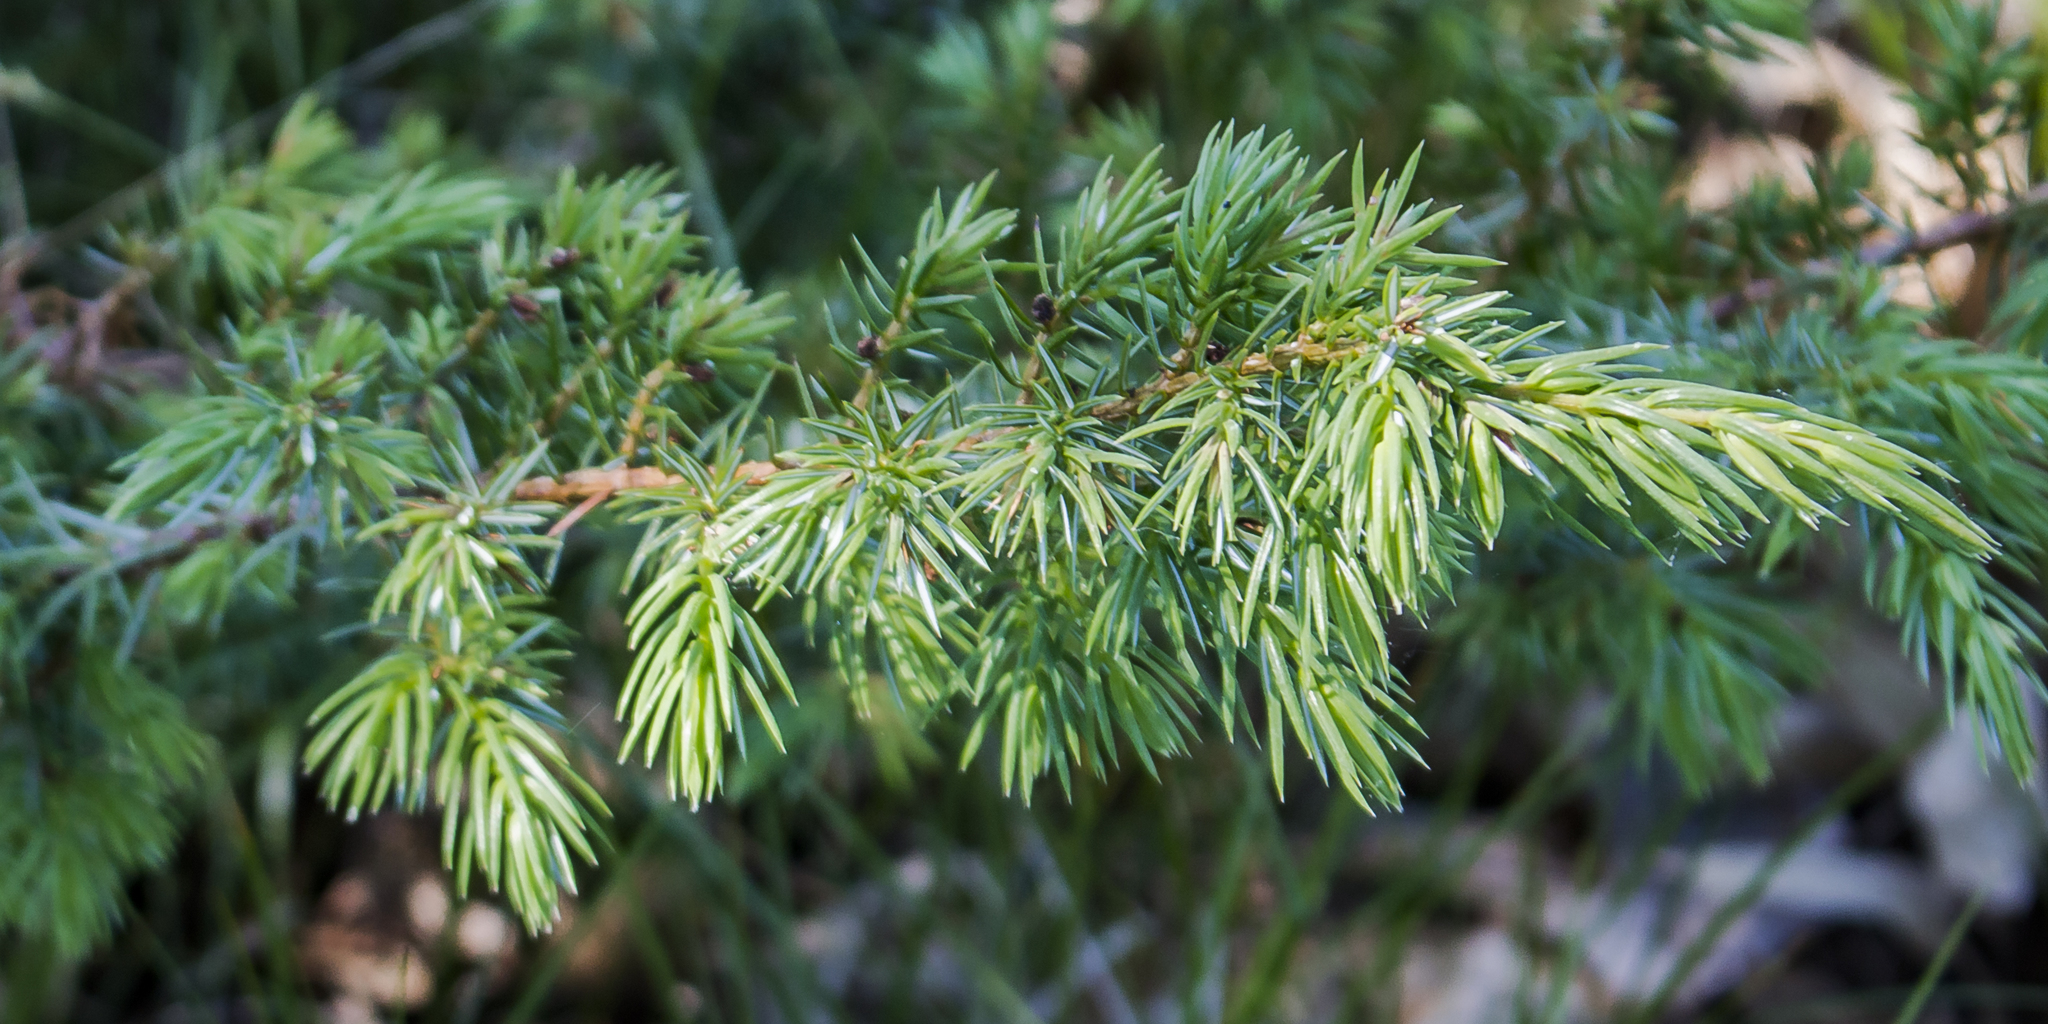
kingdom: Plantae
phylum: Tracheophyta
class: Pinopsida
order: Pinales
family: Cupressaceae
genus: Juniperus
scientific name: Juniperus communis
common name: Common juniper
